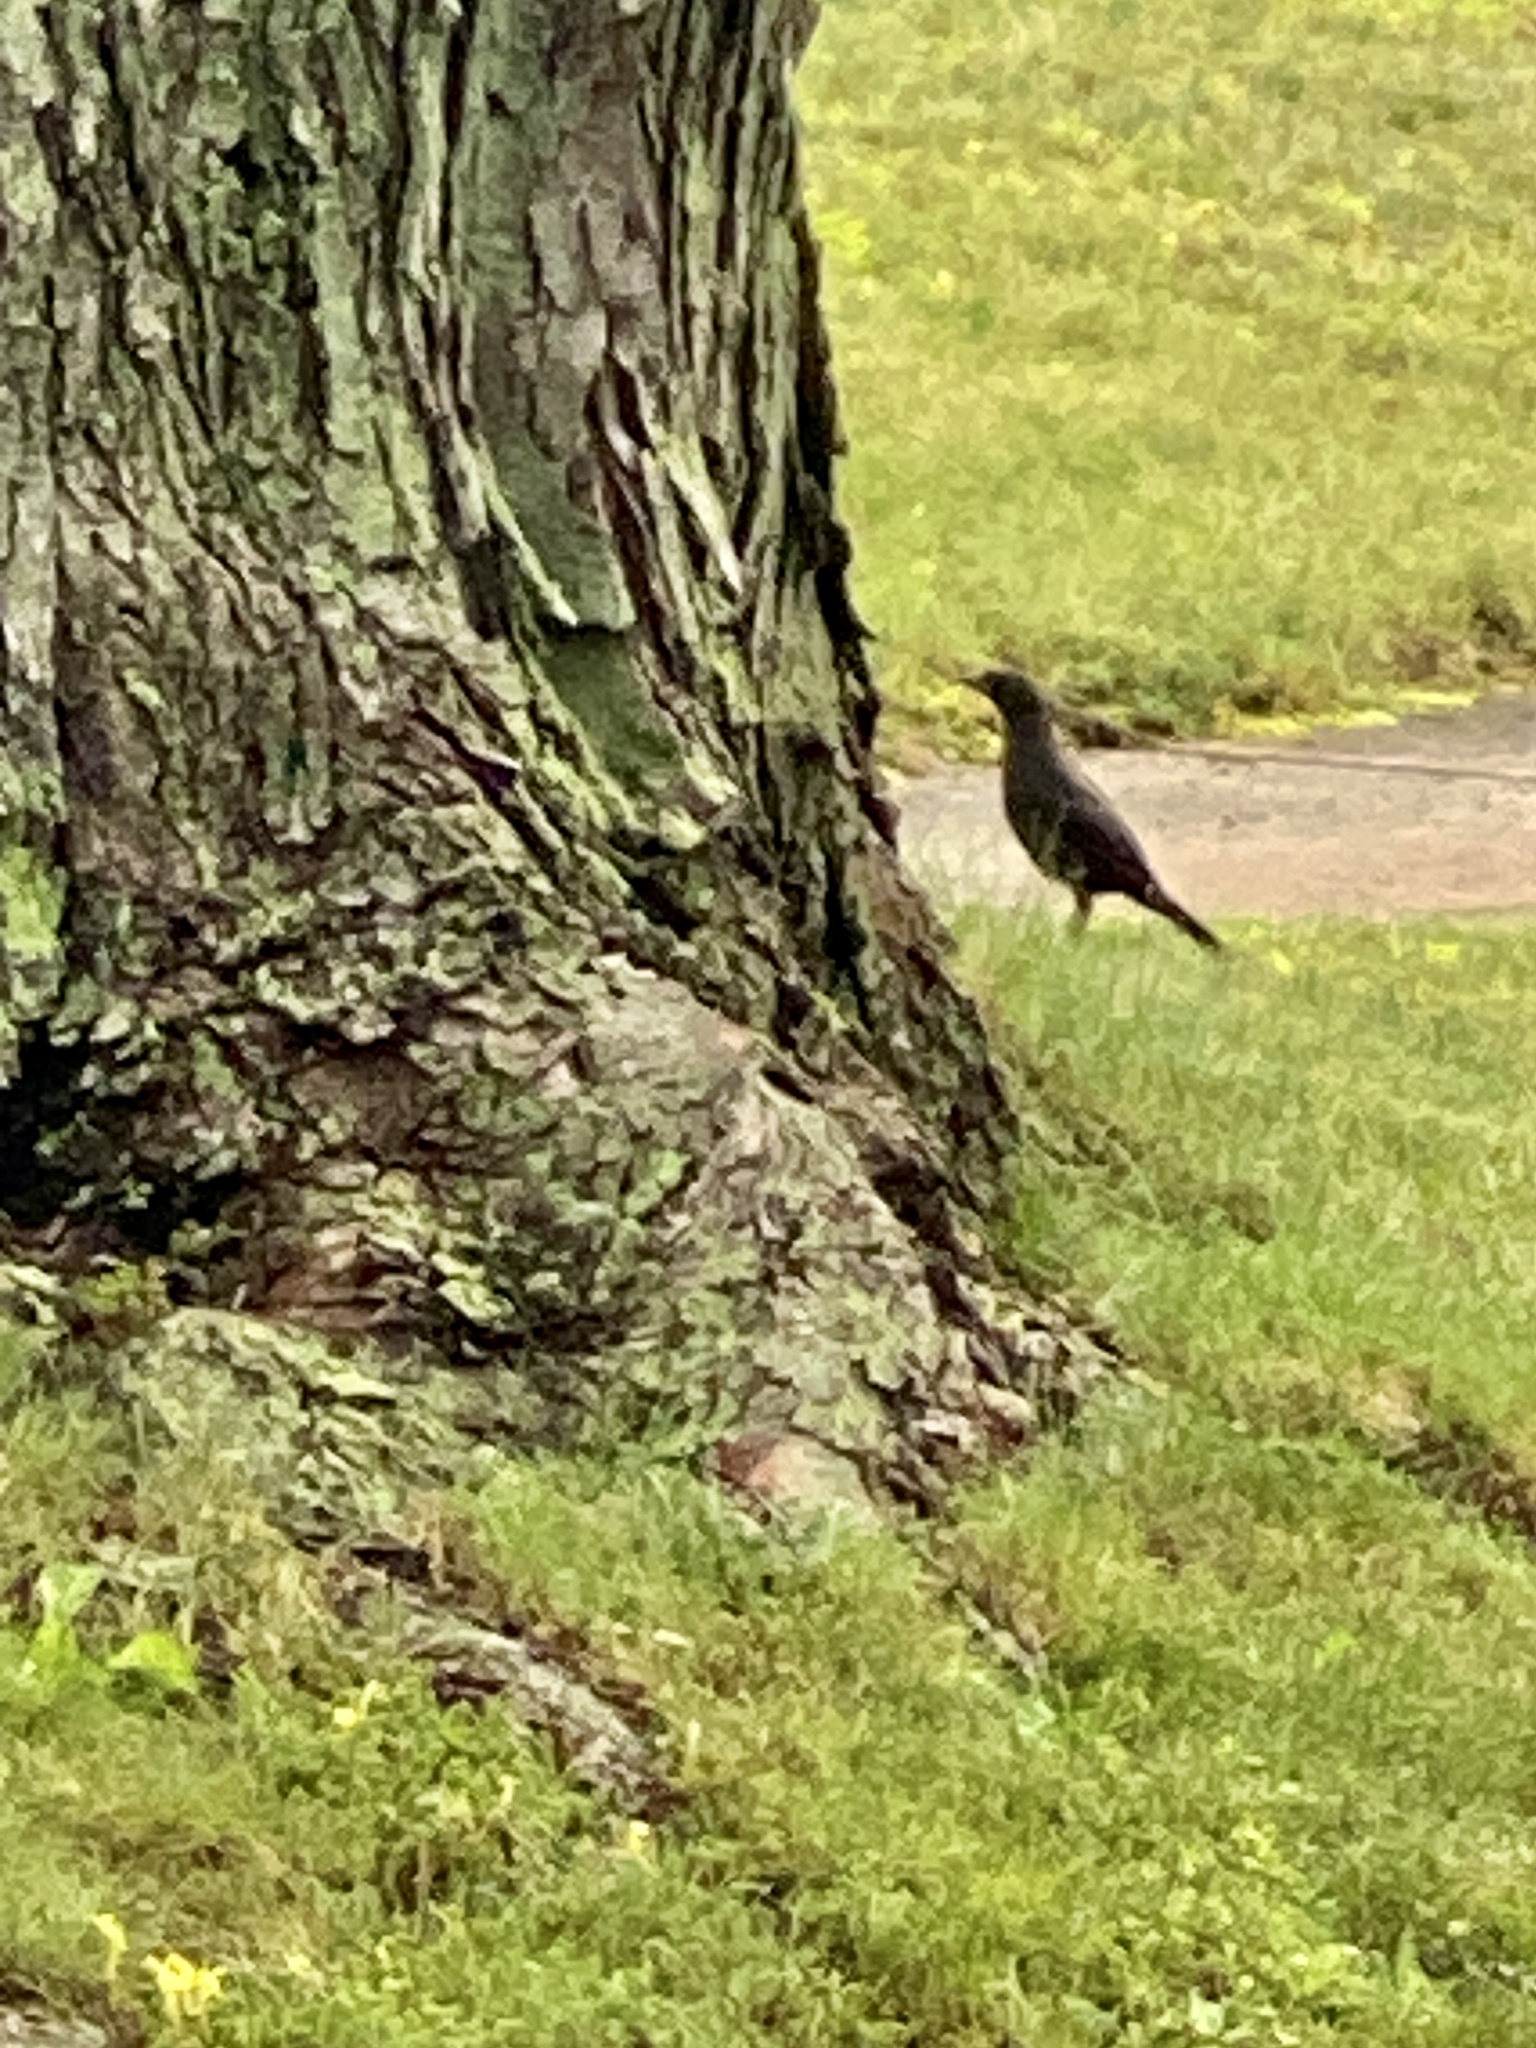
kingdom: Animalia
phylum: Chordata
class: Aves
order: Passeriformes
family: Icteridae
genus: Quiscalus
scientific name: Quiscalus quiscula
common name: Common grackle
